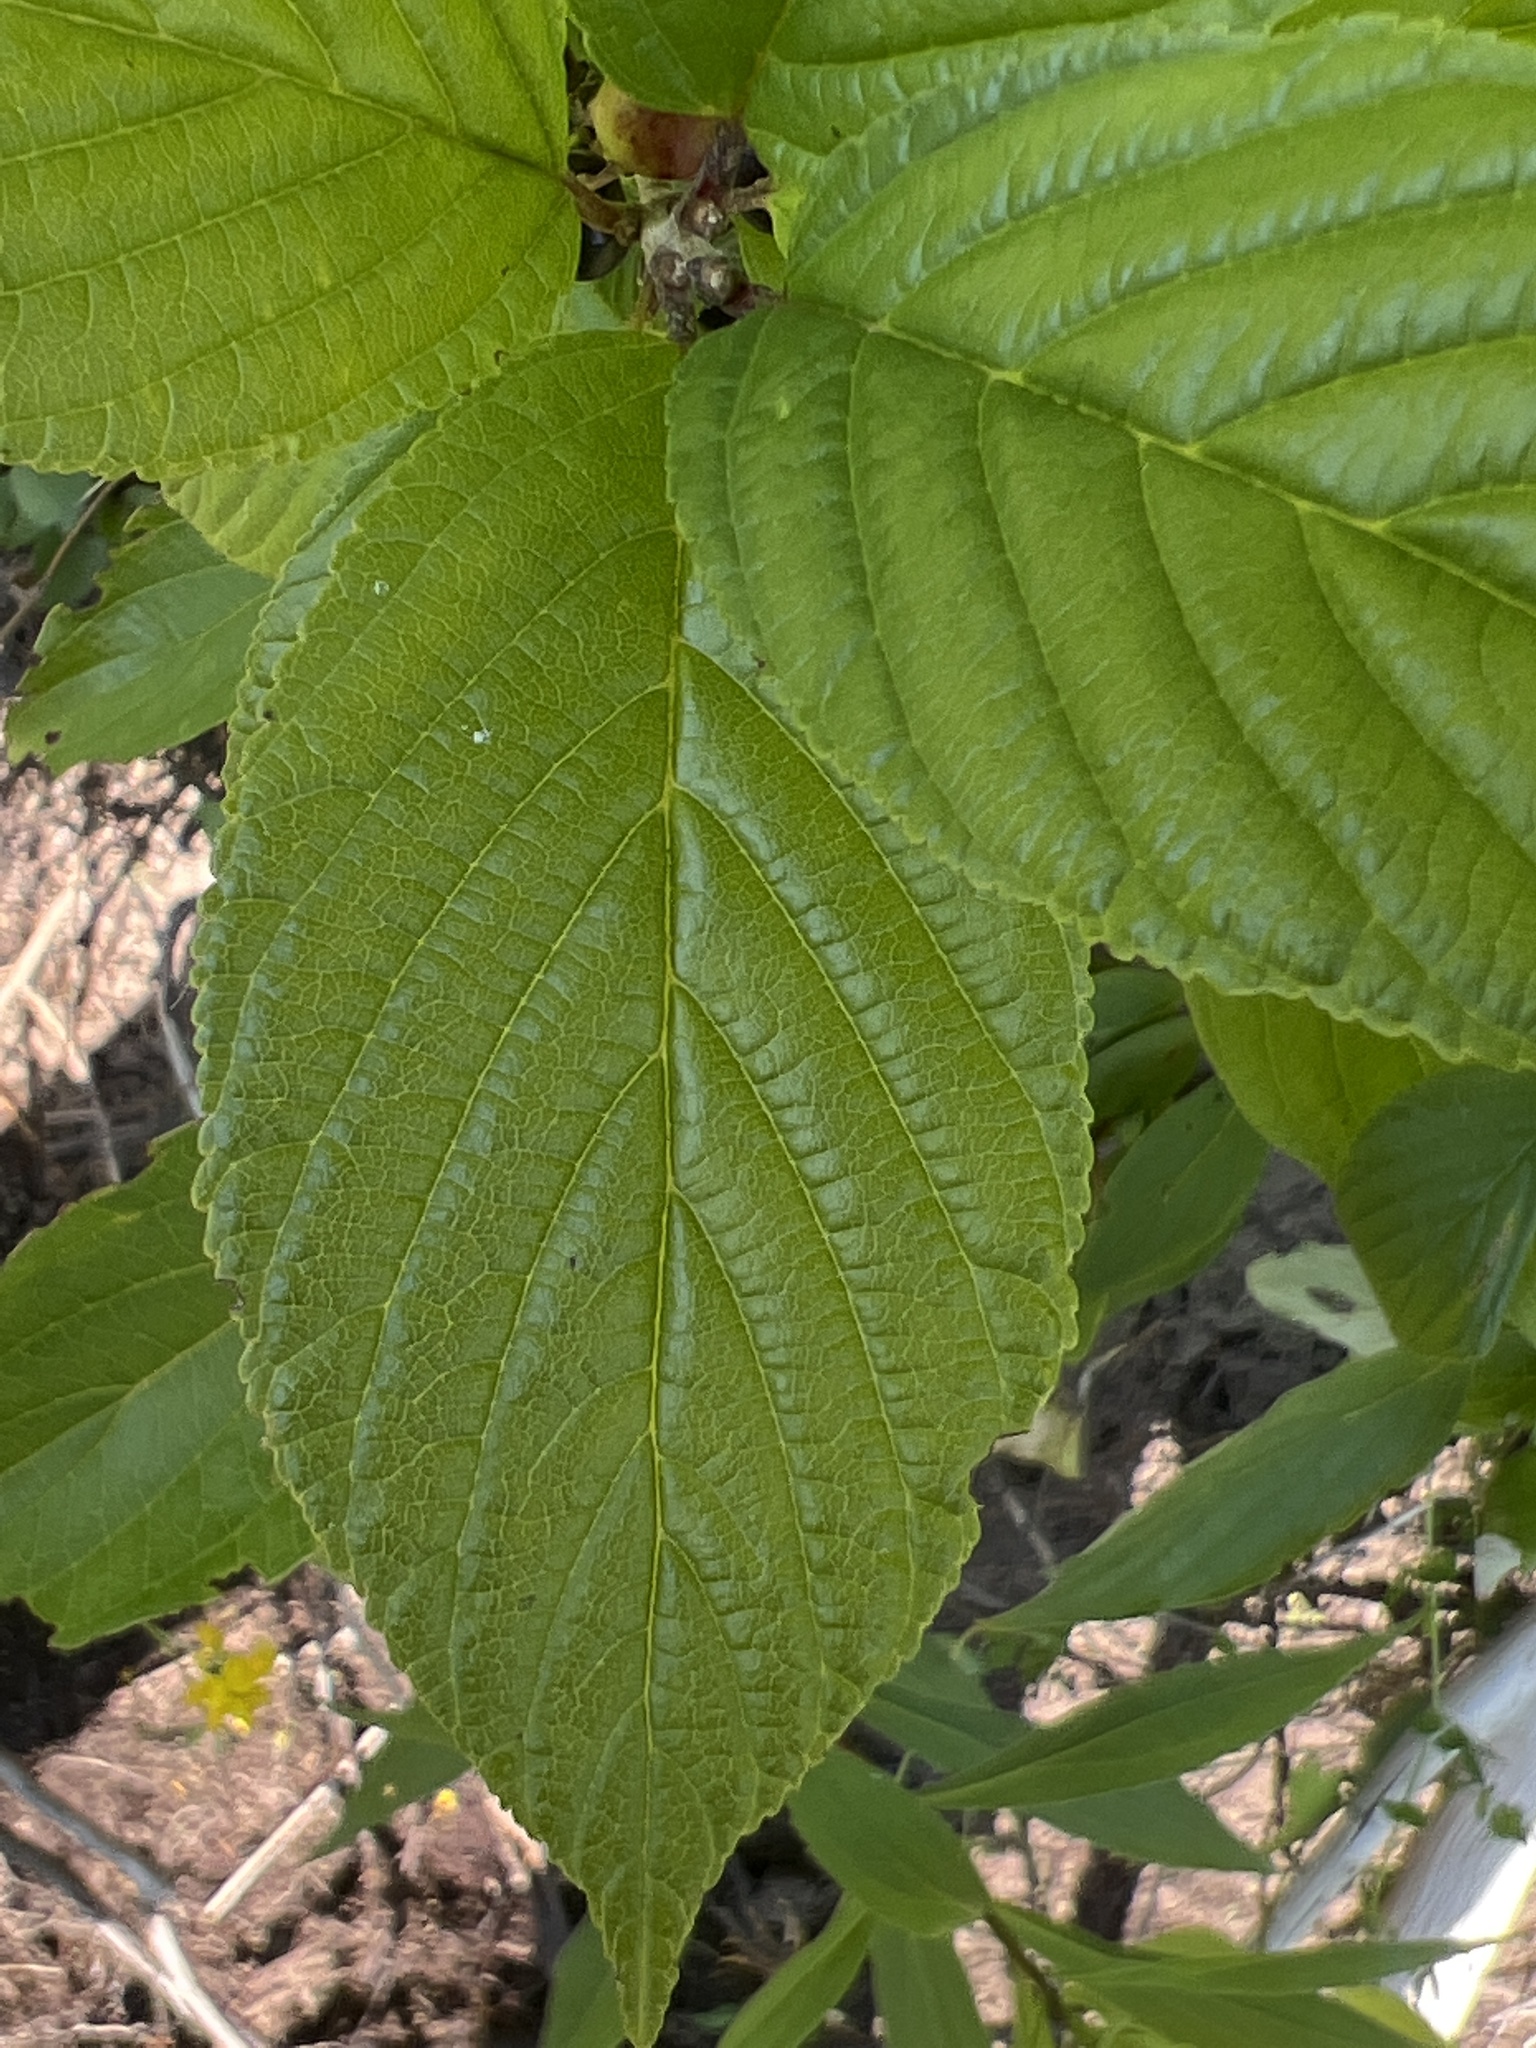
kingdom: Plantae
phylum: Tracheophyta
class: Magnoliopsida
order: Rosales
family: Rhamnaceae
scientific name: Rhamnaceae
